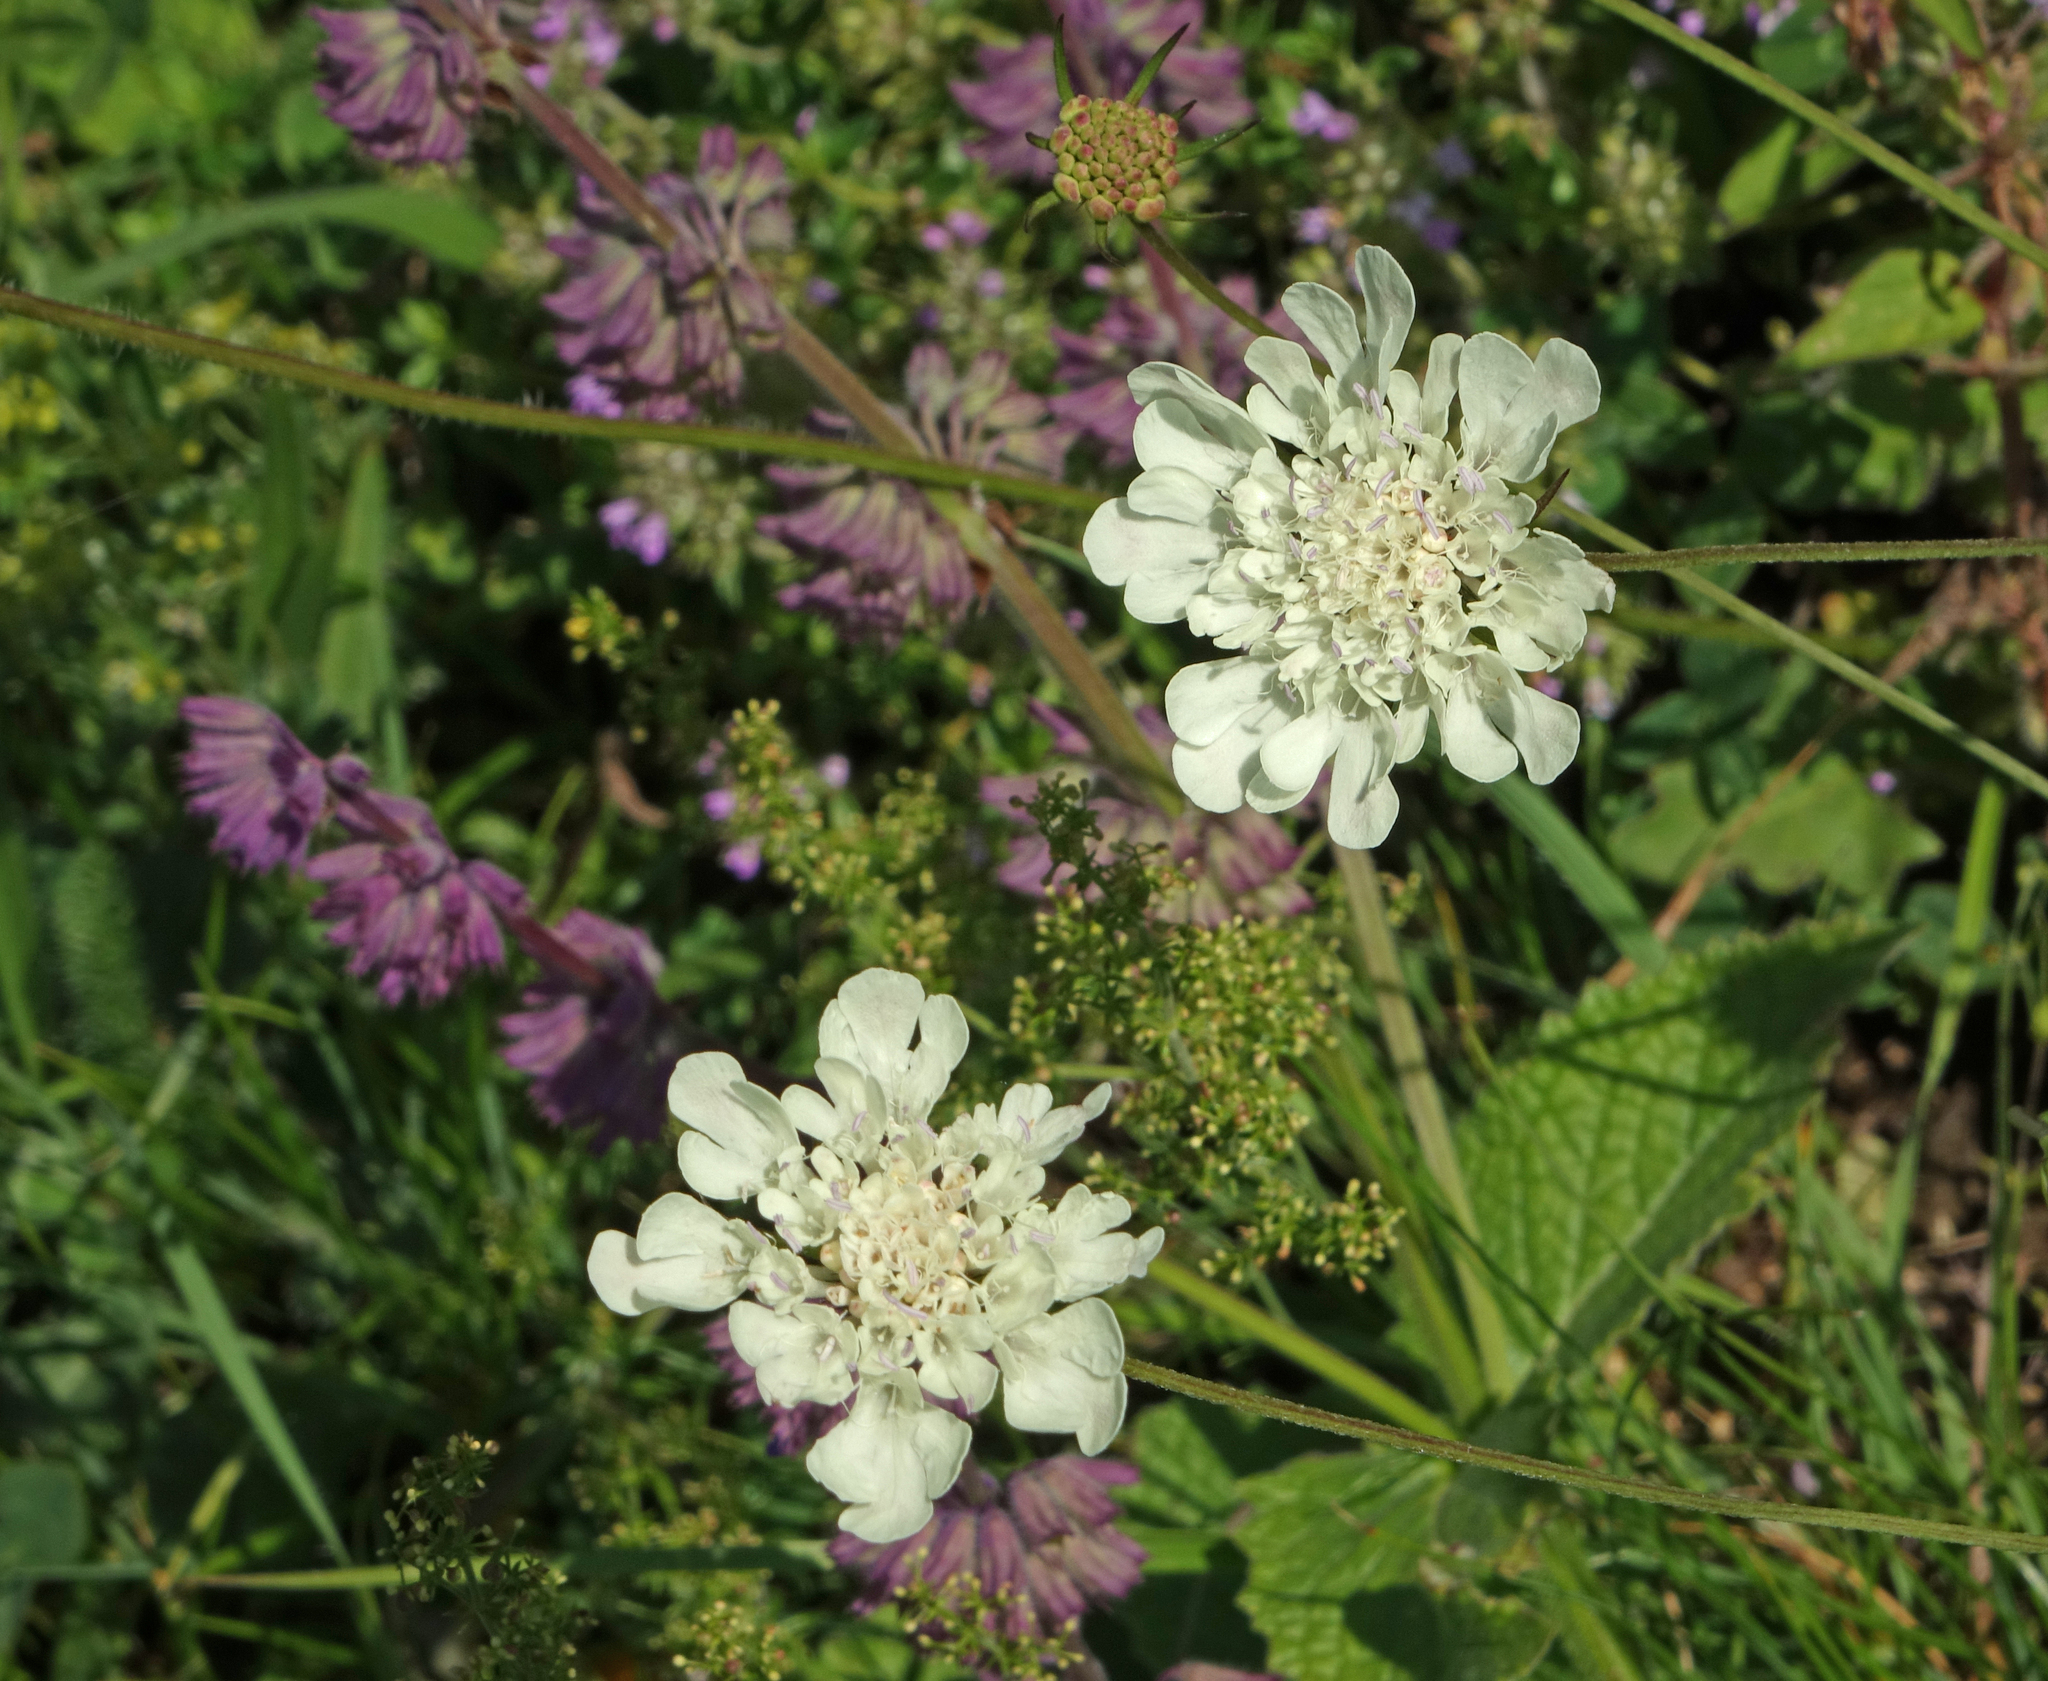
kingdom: Plantae
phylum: Tracheophyta
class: Magnoliopsida
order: Dipsacales
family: Caprifoliaceae
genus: Cephalaria
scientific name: Cephalaria gigantea
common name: Tatarian cephalaria
